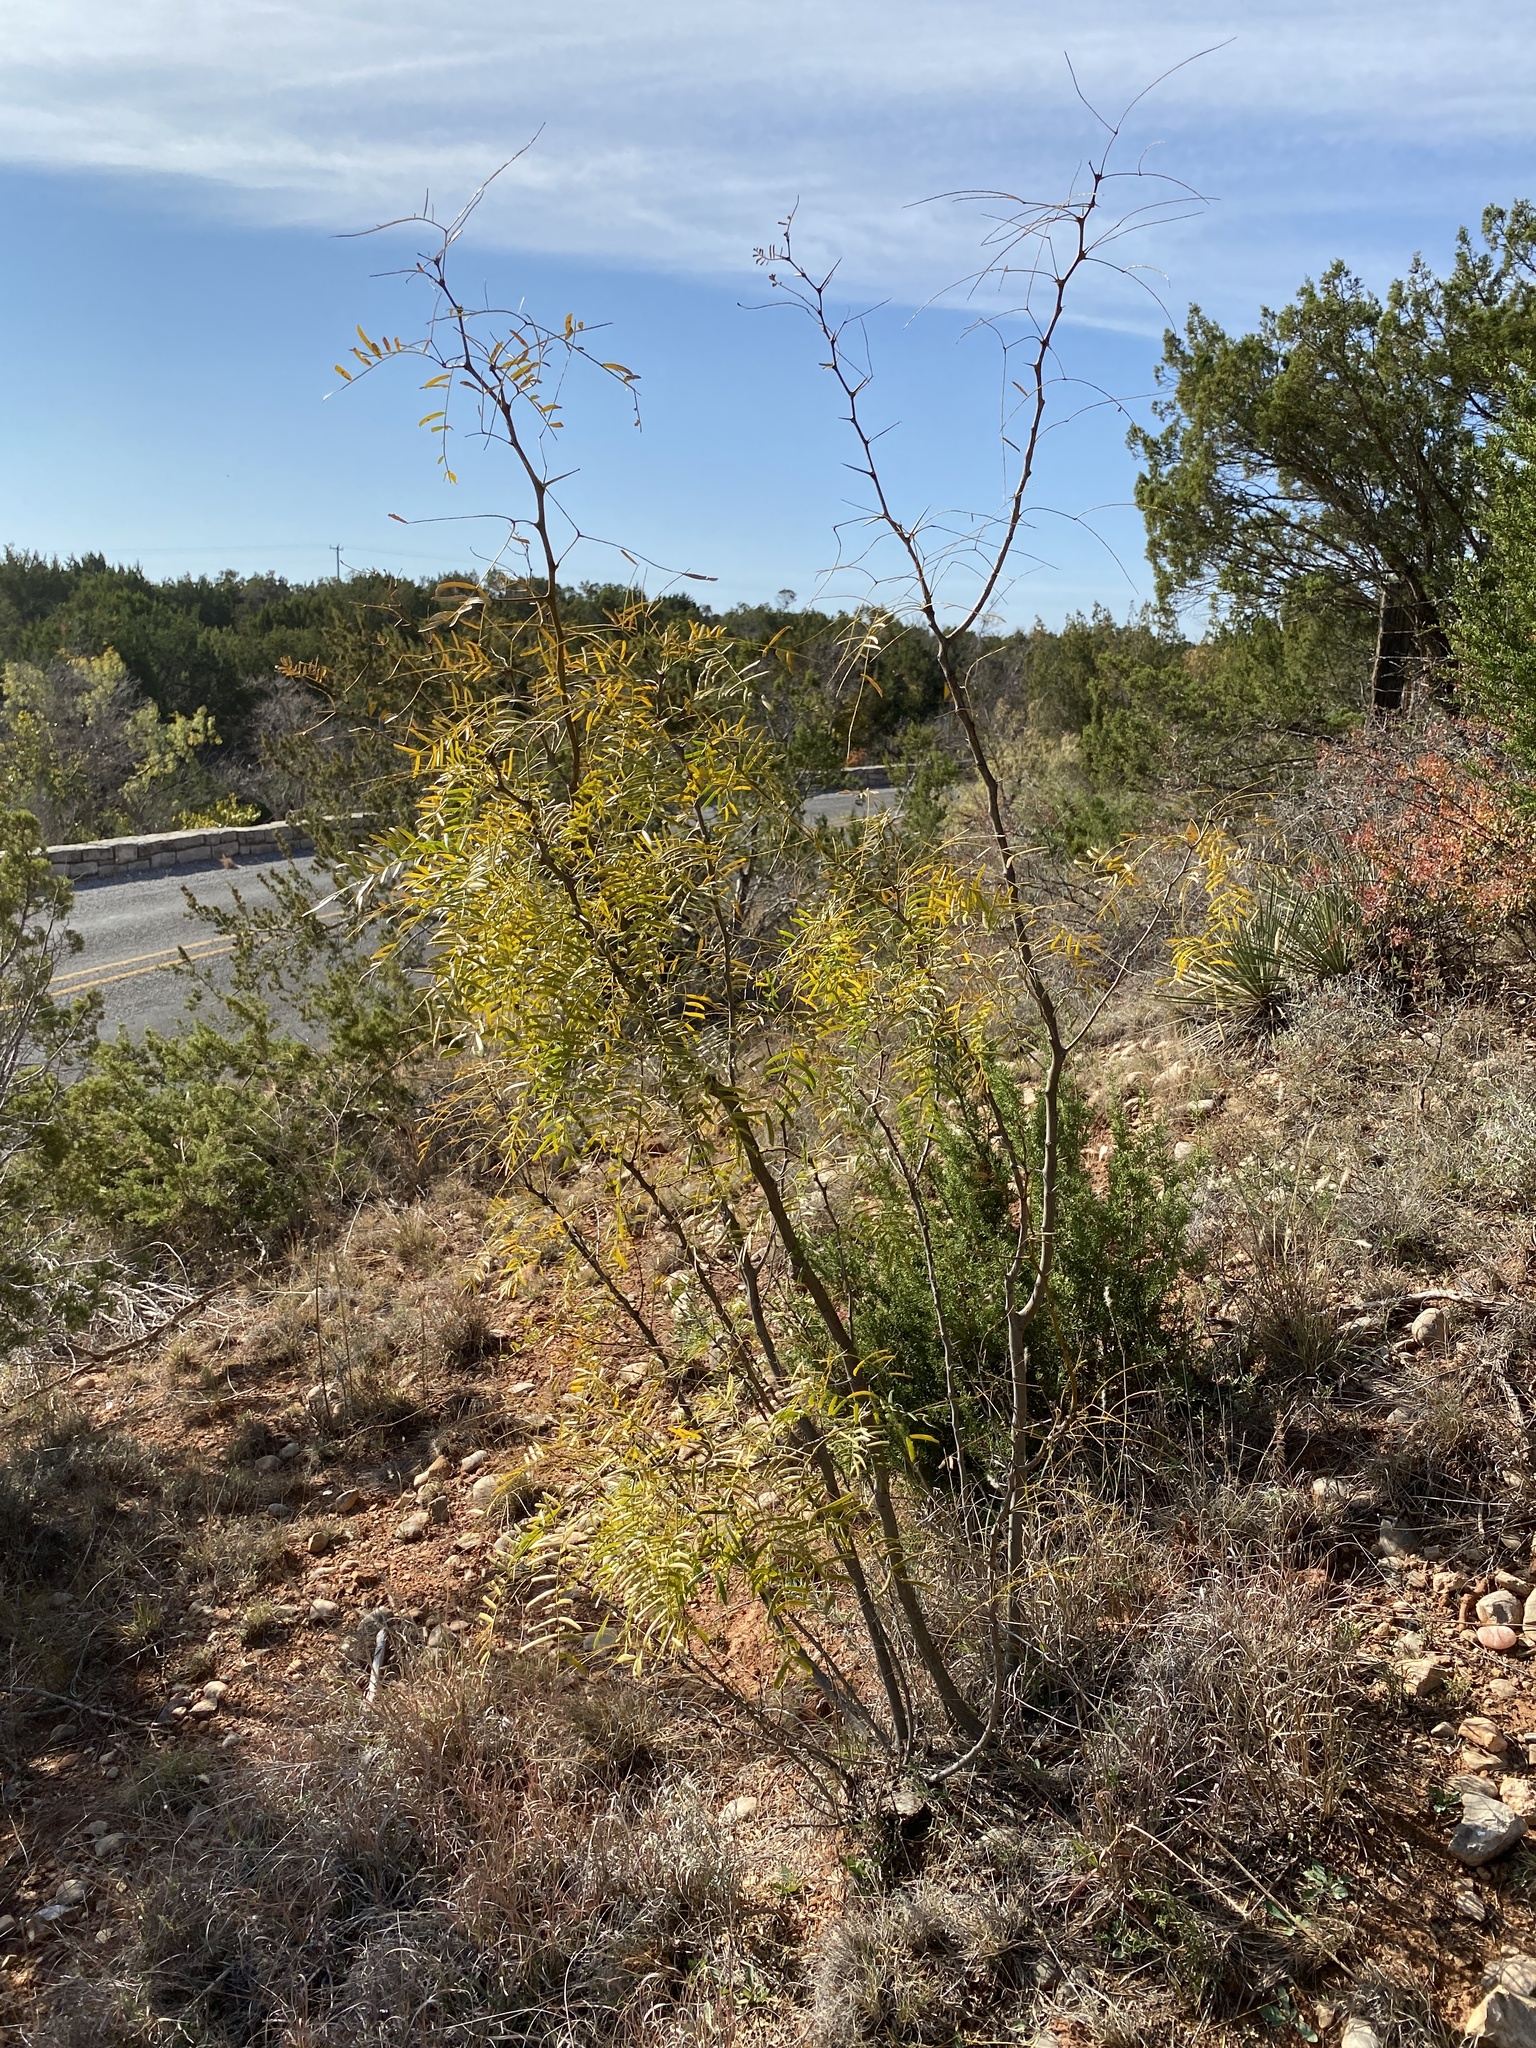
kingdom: Plantae
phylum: Tracheophyta
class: Magnoliopsida
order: Fabales
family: Fabaceae
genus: Prosopis
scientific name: Prosopis glandulosa
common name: Honey mesquite
